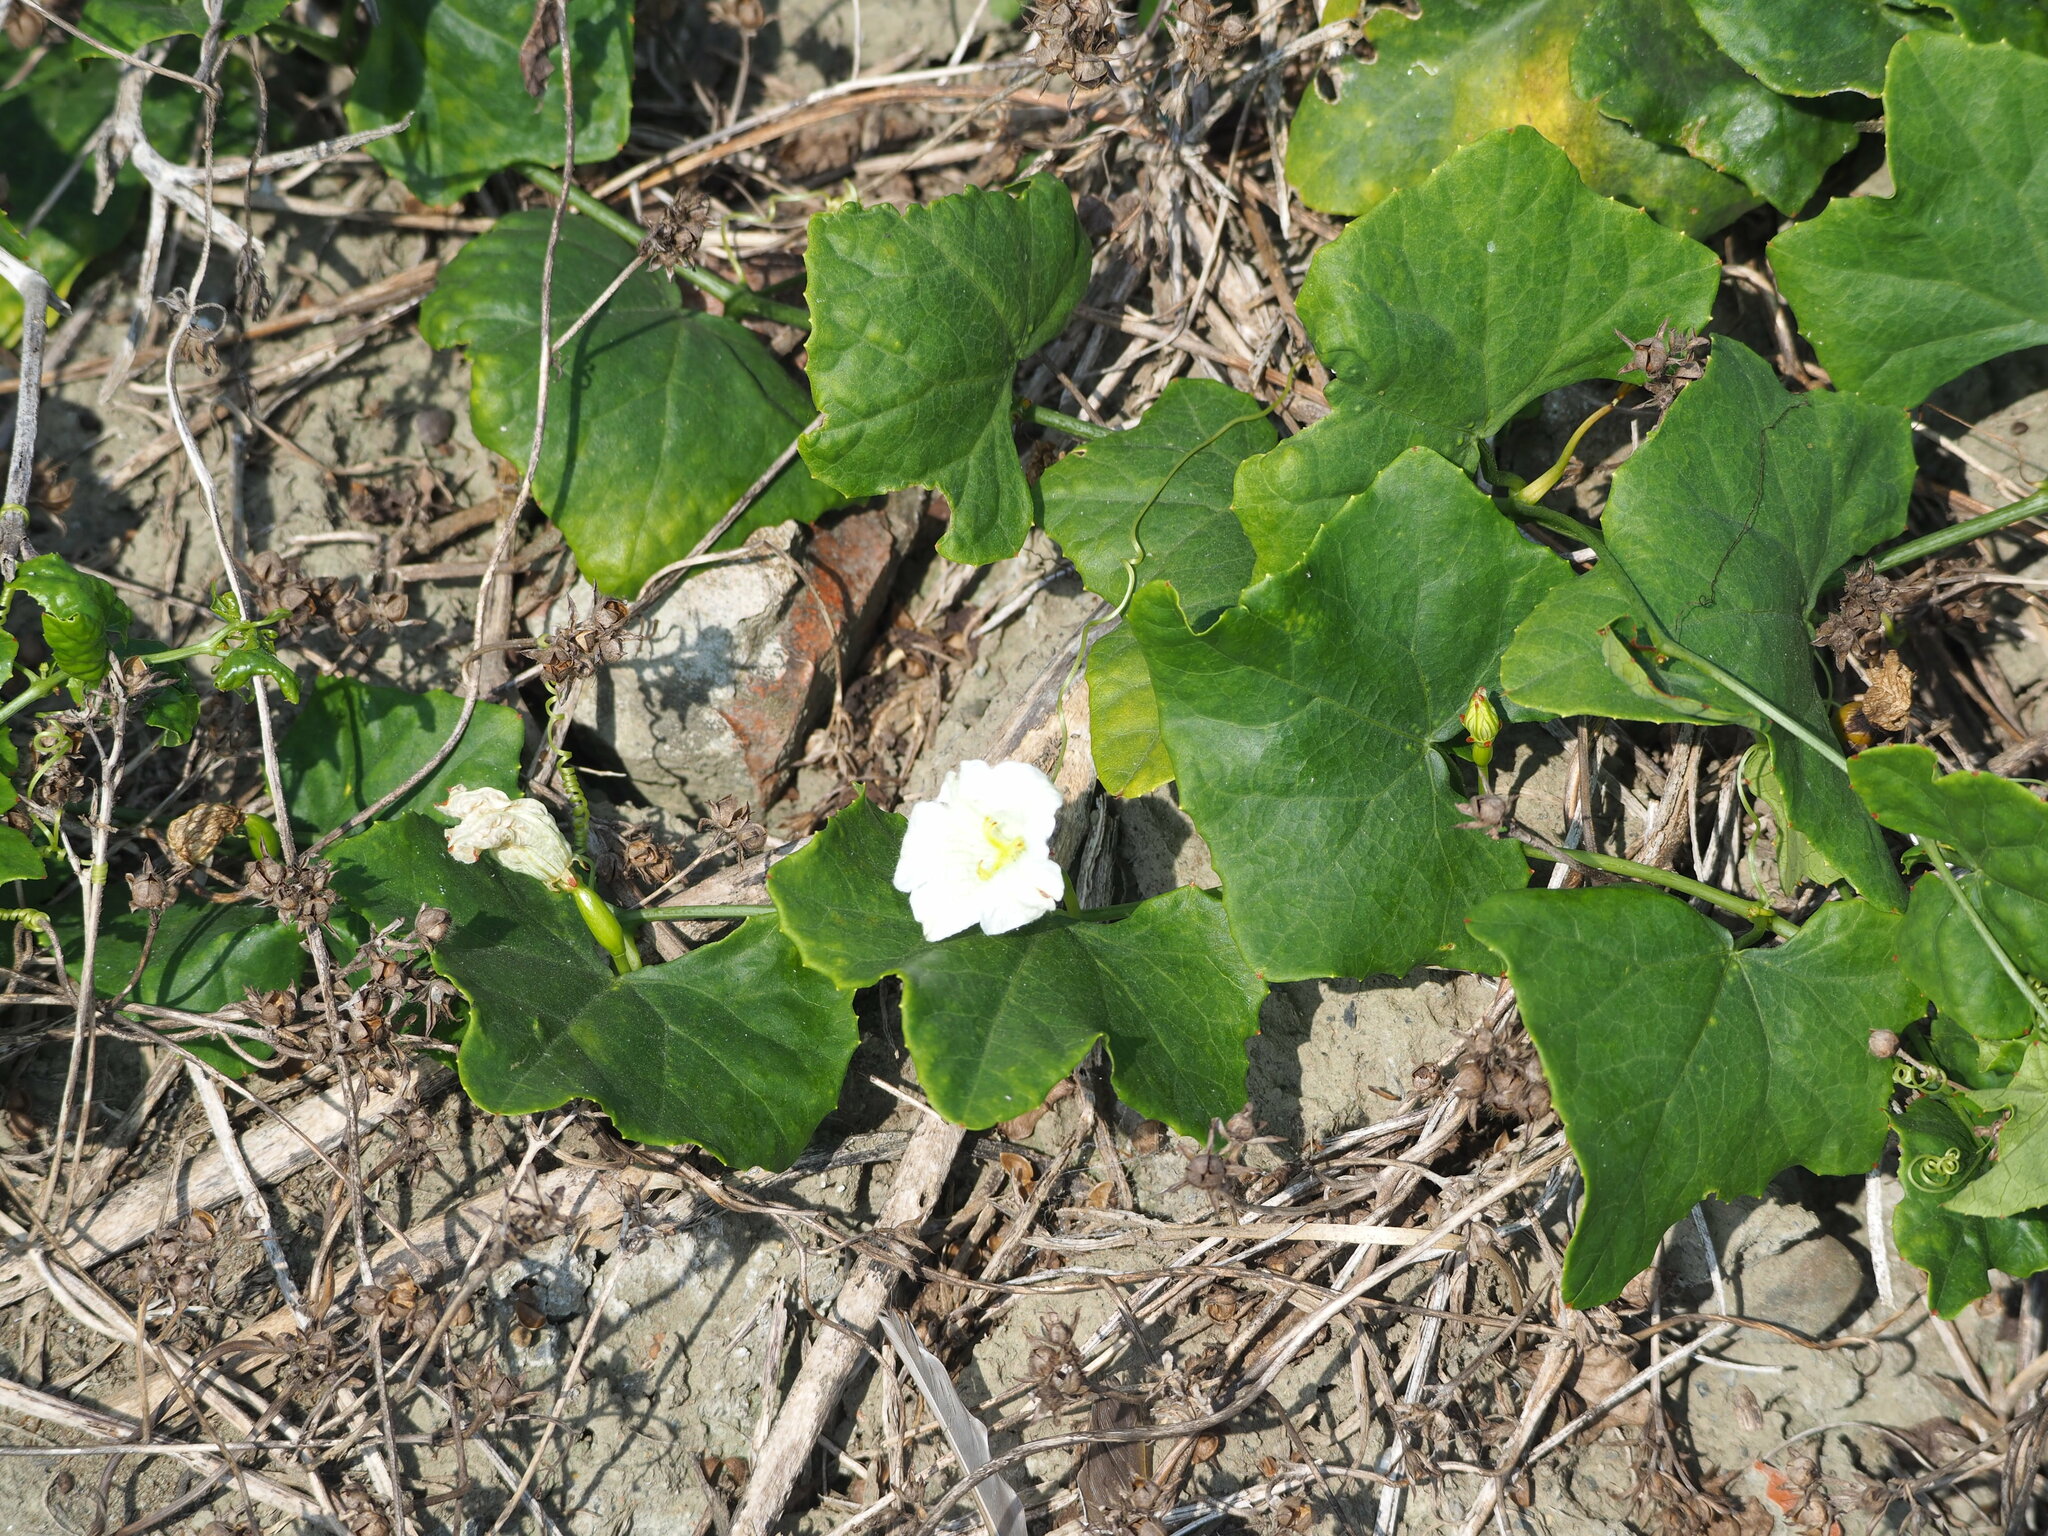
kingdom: Plantae
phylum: Tracheophyta
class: Magnoliopsida
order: Cucurbitales
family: Cucurbitaceae
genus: Coccinia
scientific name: Coccinia grandis
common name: Ivy gourd
